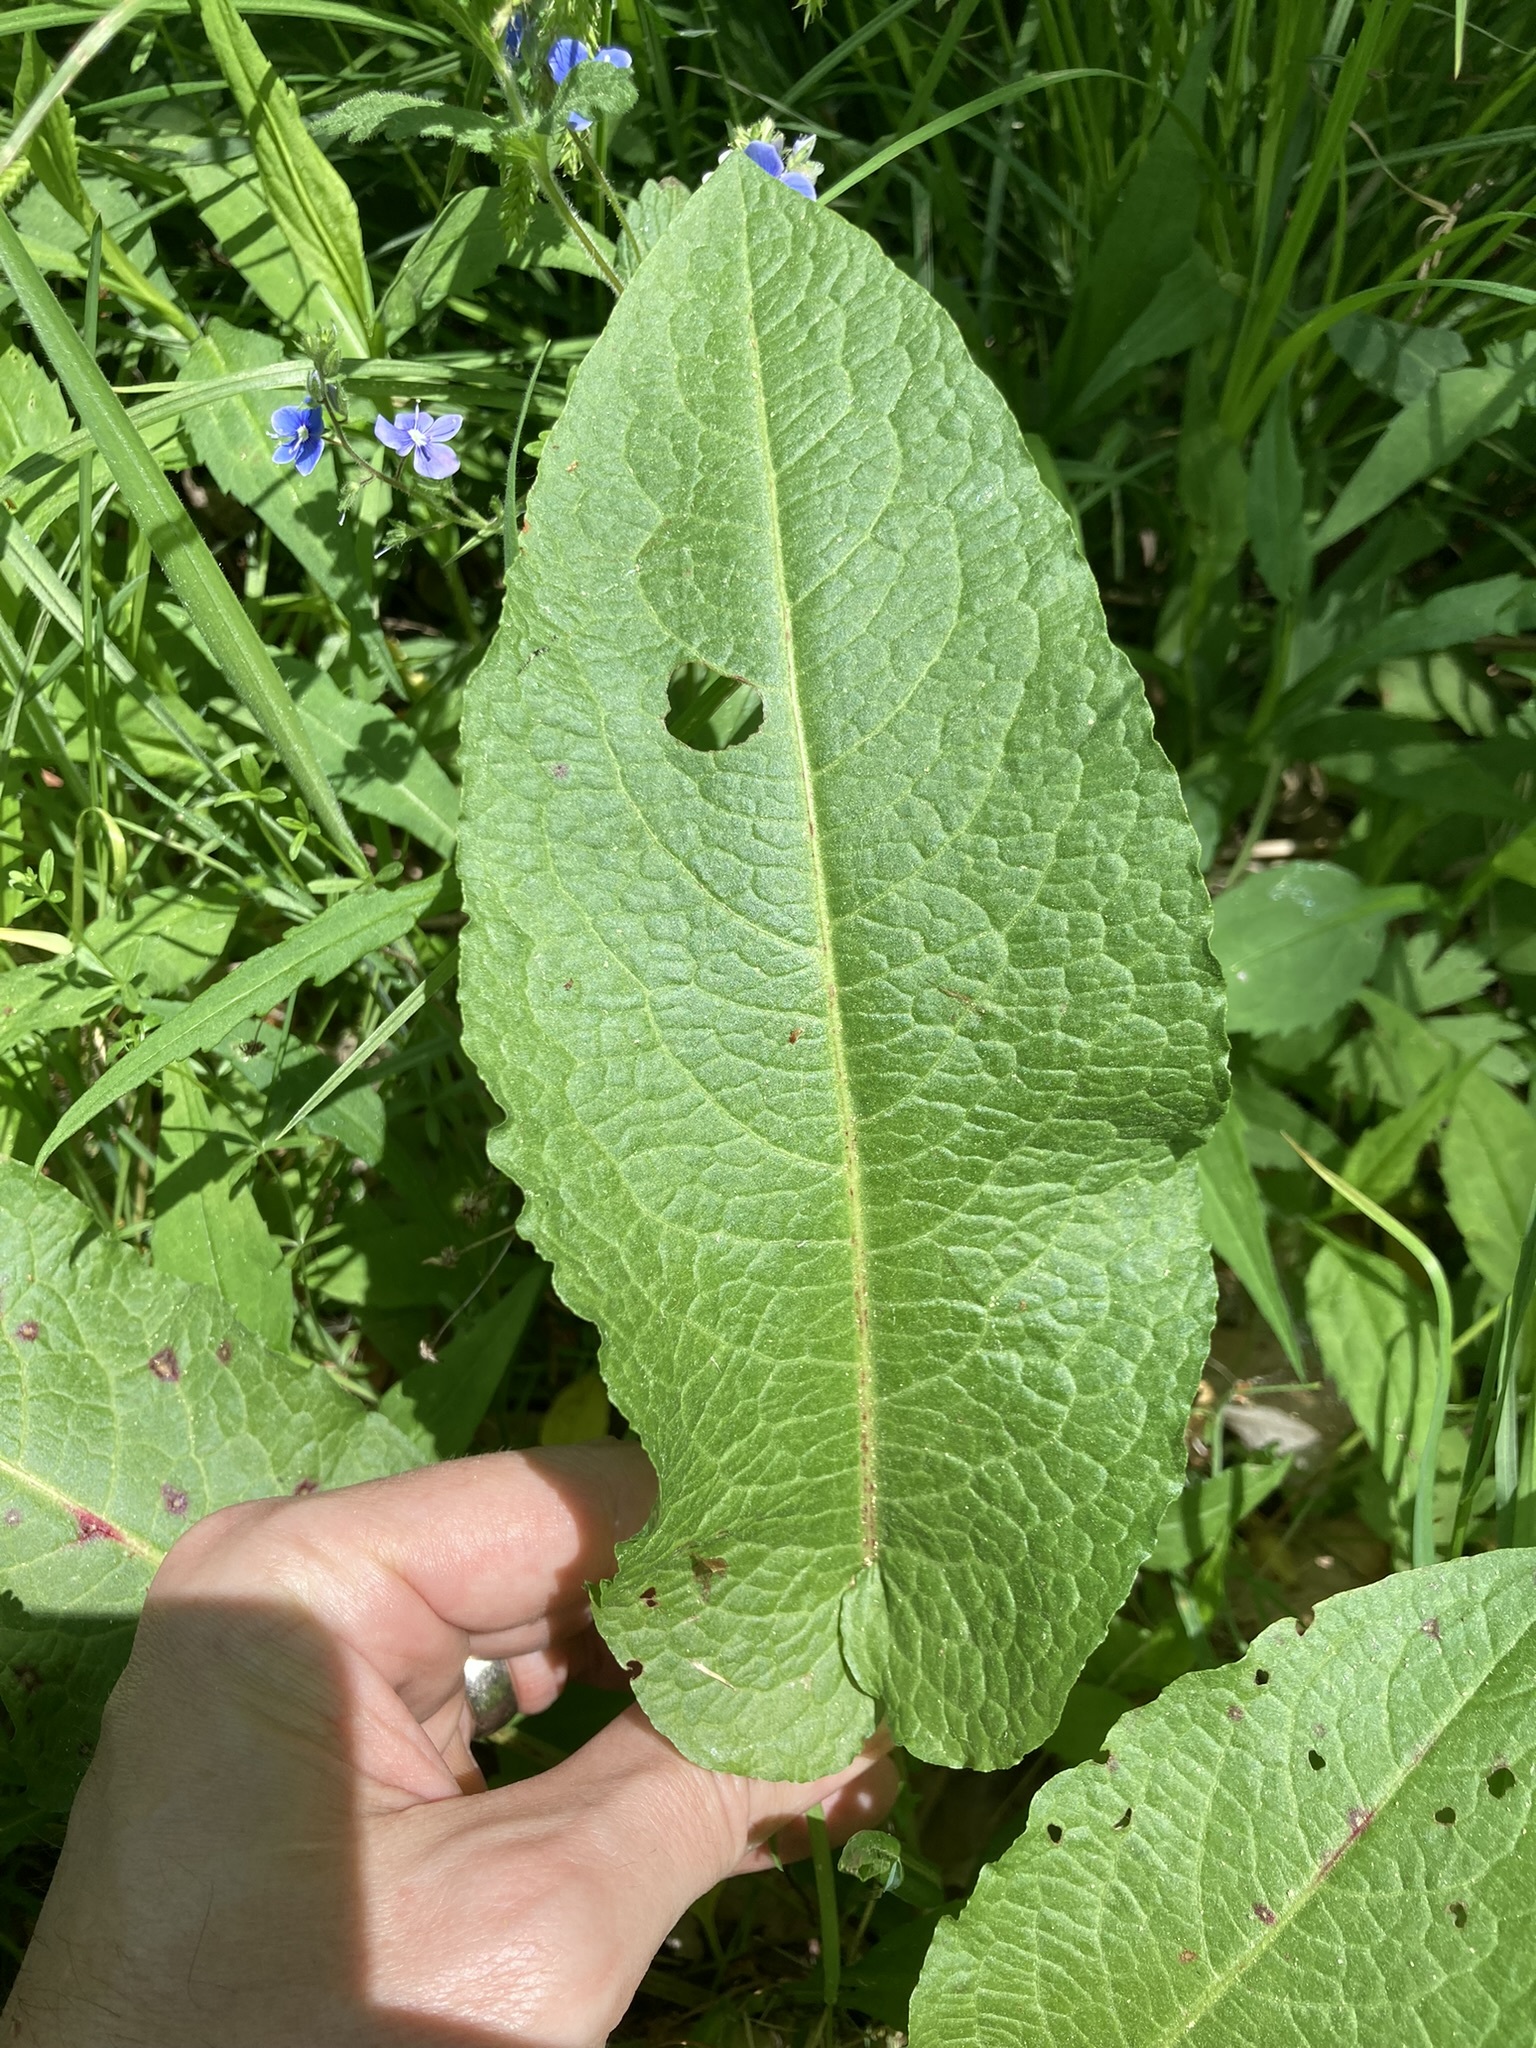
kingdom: Plantae
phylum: Tracheophyta
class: Magnoliopsida
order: Caryophyllales
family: Polygonaceae
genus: Rumex
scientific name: Rumex obtusifolius
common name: Bitter dock
